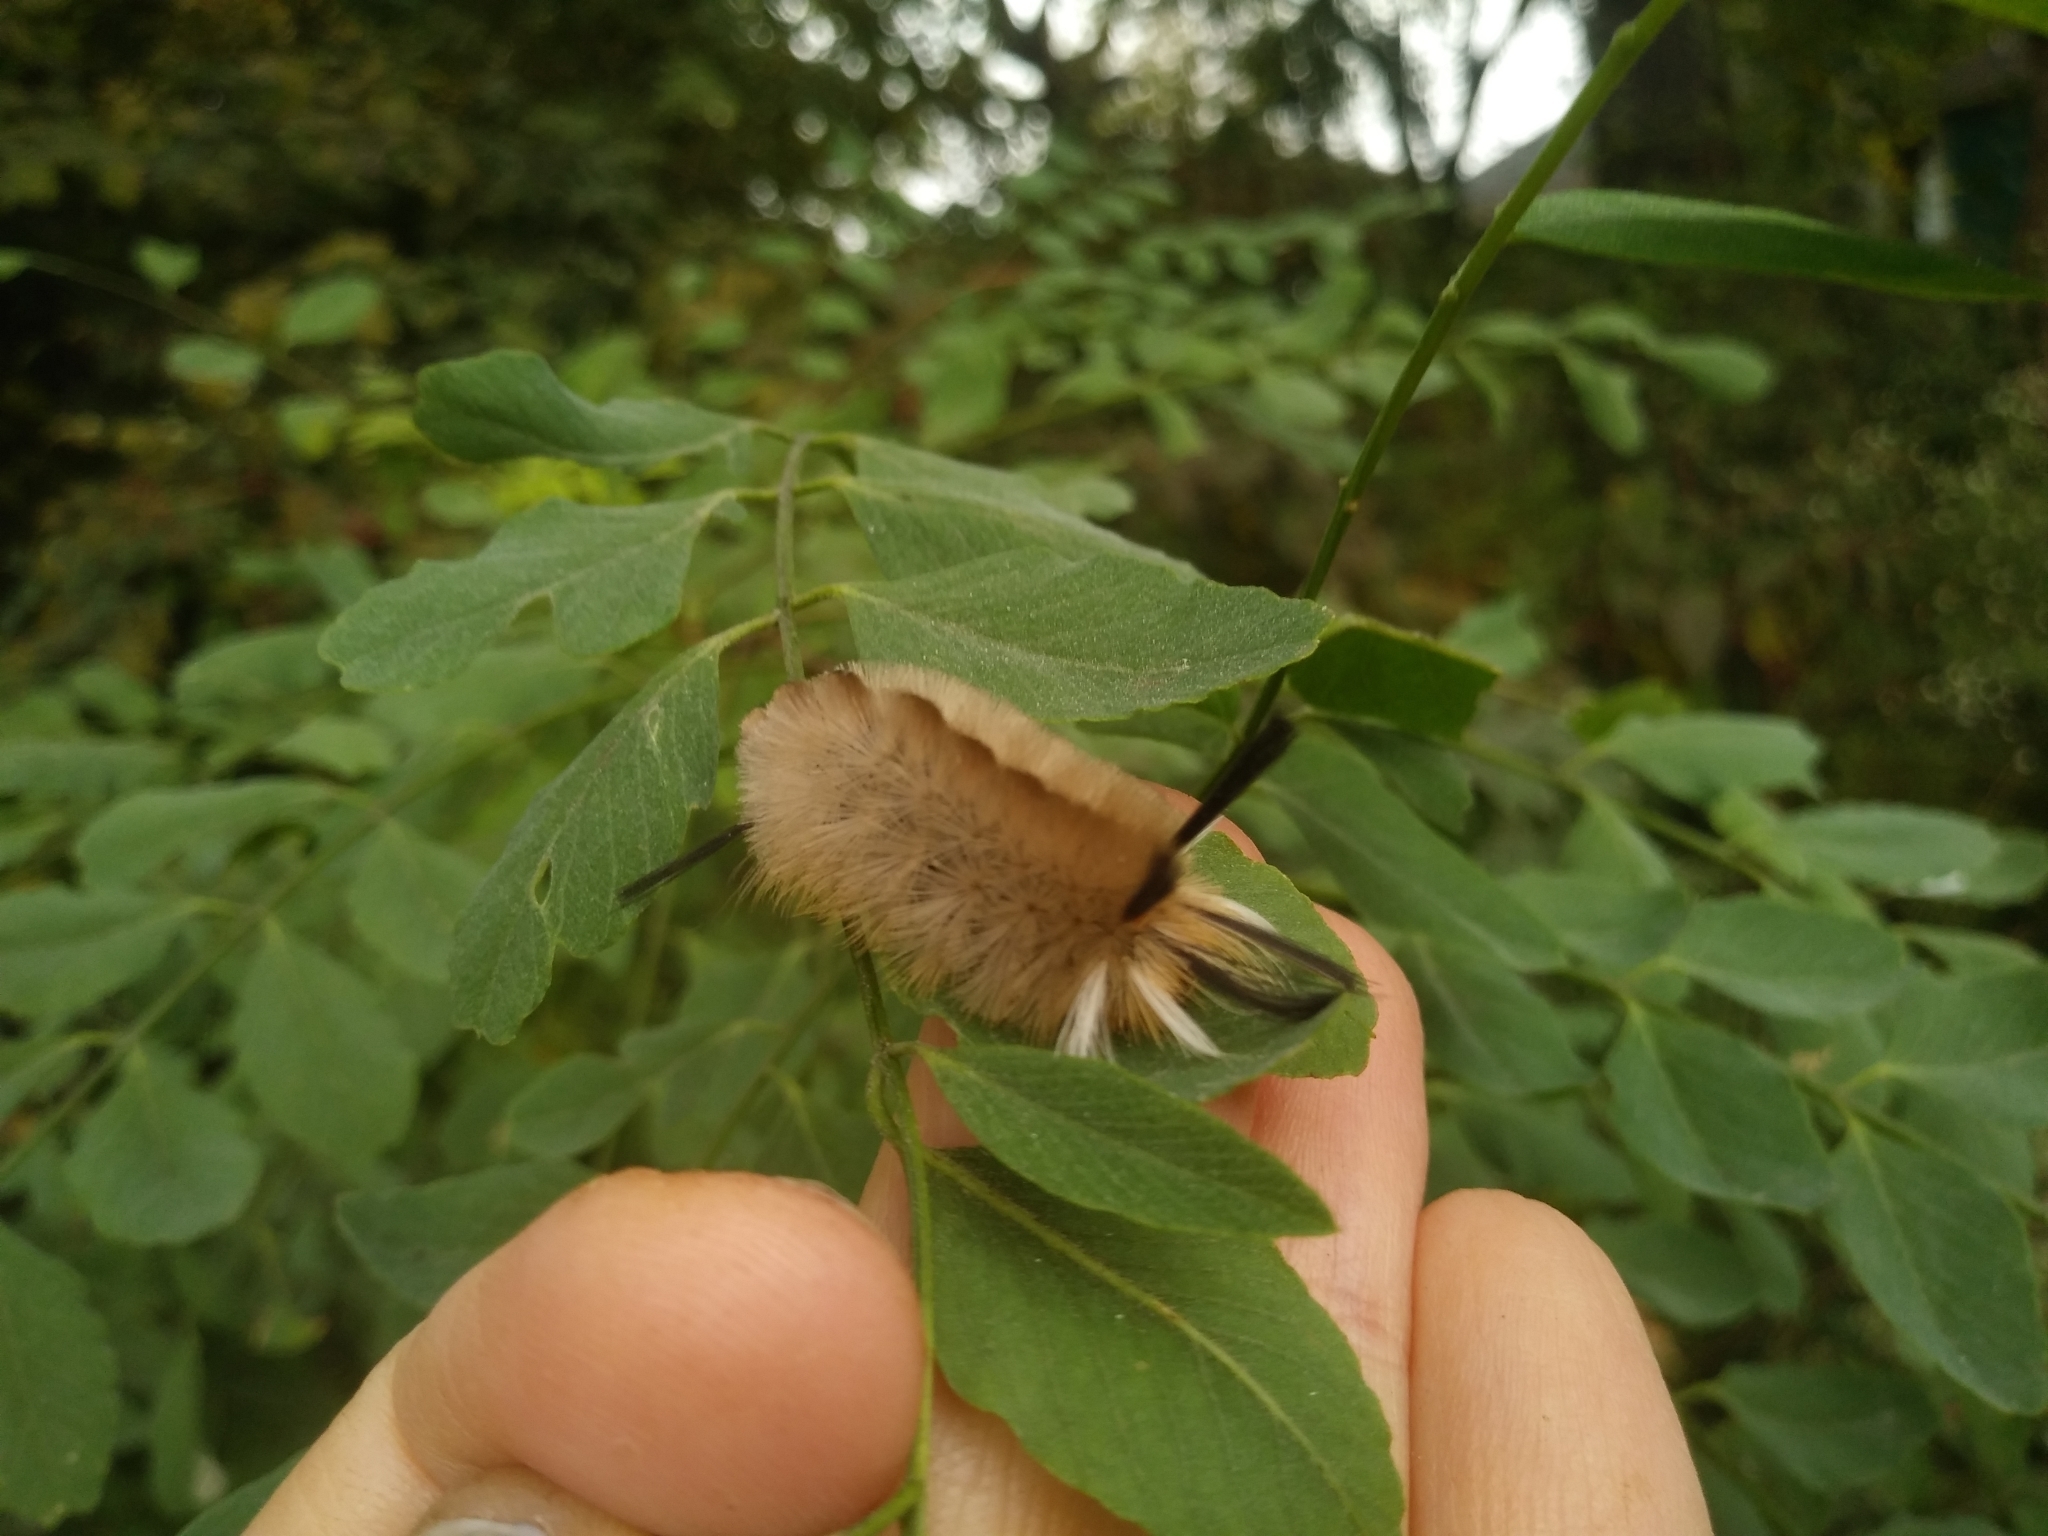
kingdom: Animalia
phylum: Arthropoda
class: Insecta
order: Lepidoptera
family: Erebidae
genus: Halysidota
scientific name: Halysidota tessellaris
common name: Banded tussock moth
